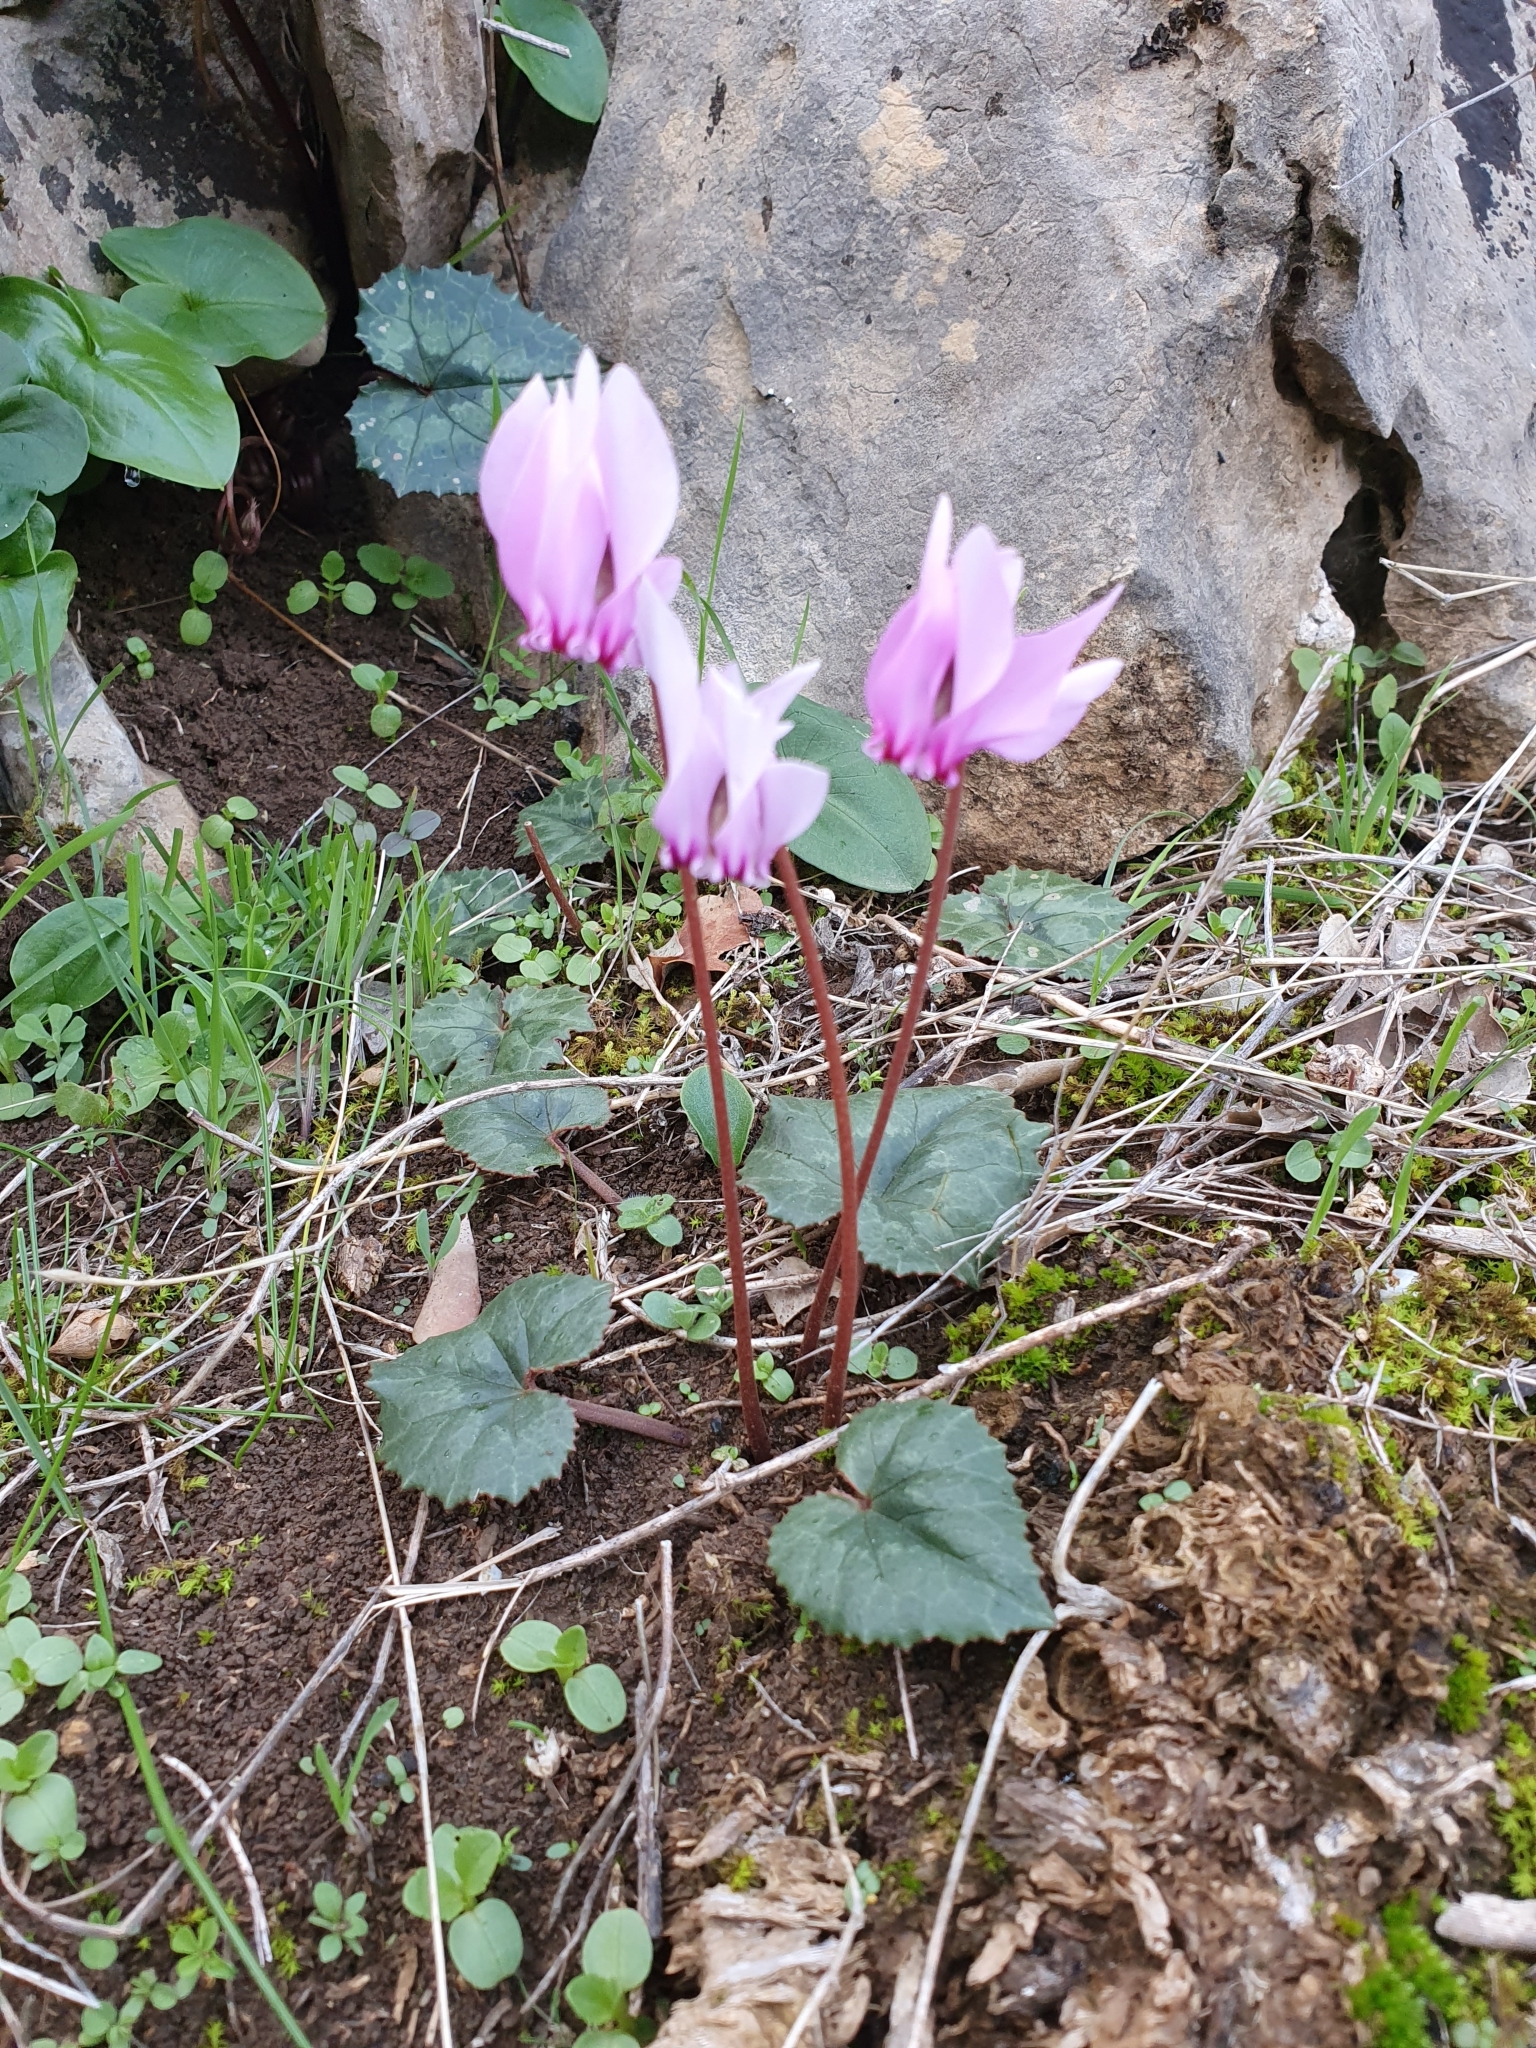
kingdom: Plantae
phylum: Tracheophyta
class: Magnoliopsida
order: Ericales
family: Primulaceae
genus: Cyclamen
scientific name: Cyclamen africanum
